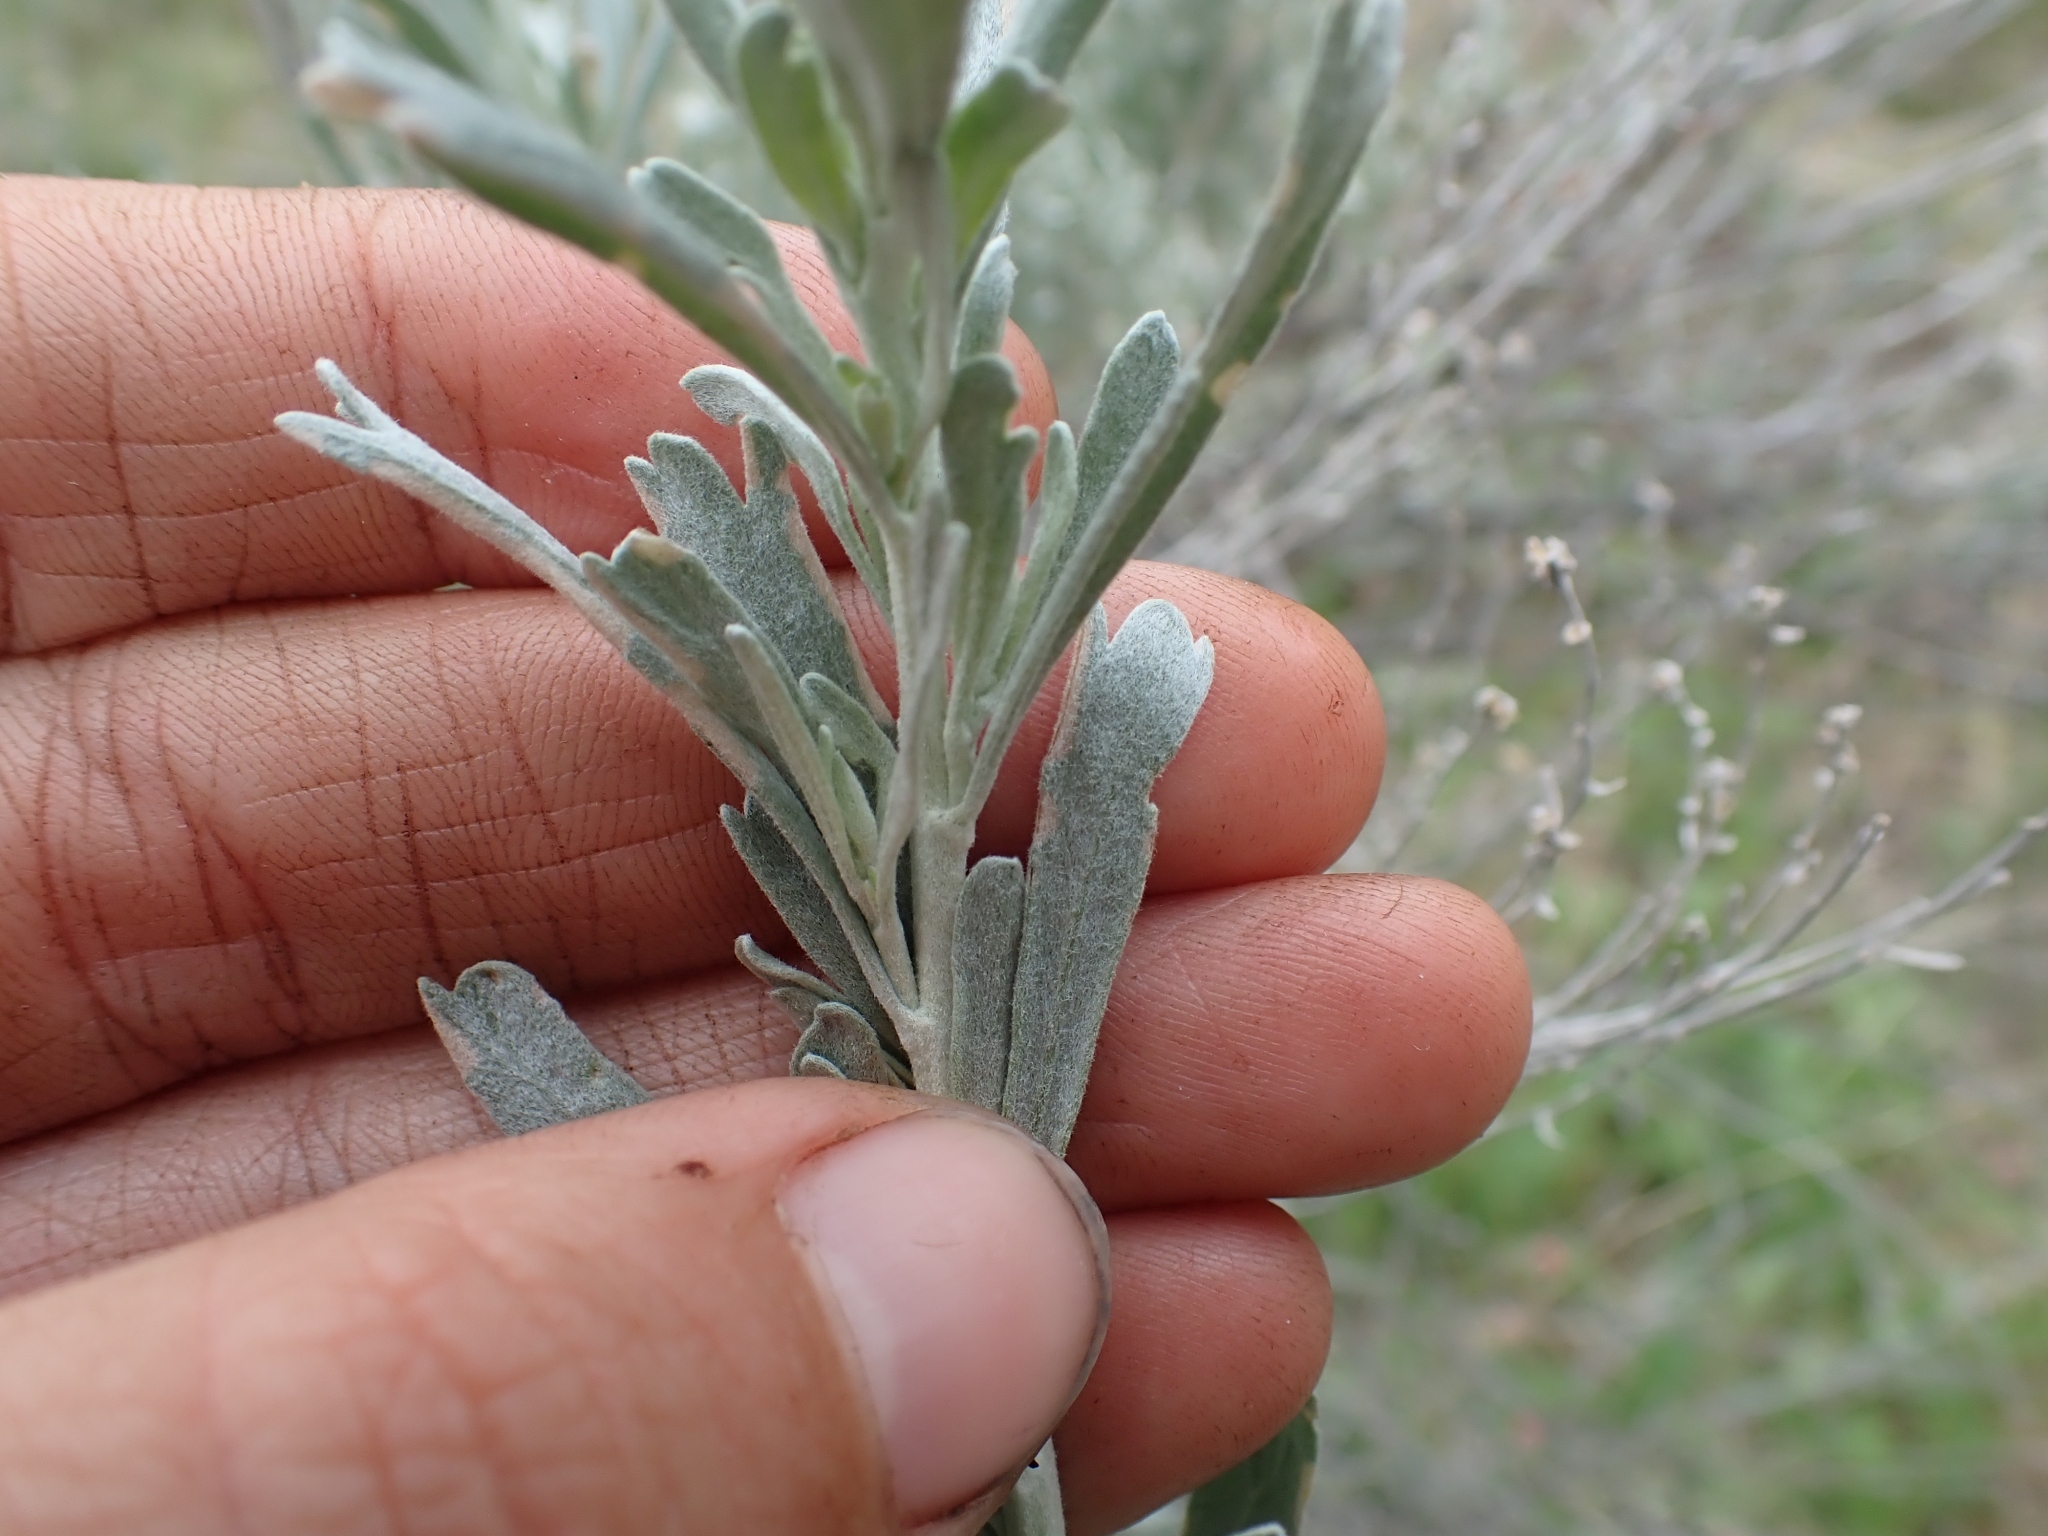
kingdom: Plantae
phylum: Tracheophyta
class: Magnoliopsida
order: Asterales
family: Asteraceae
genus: Artemisia
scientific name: Artemisia tridentata
